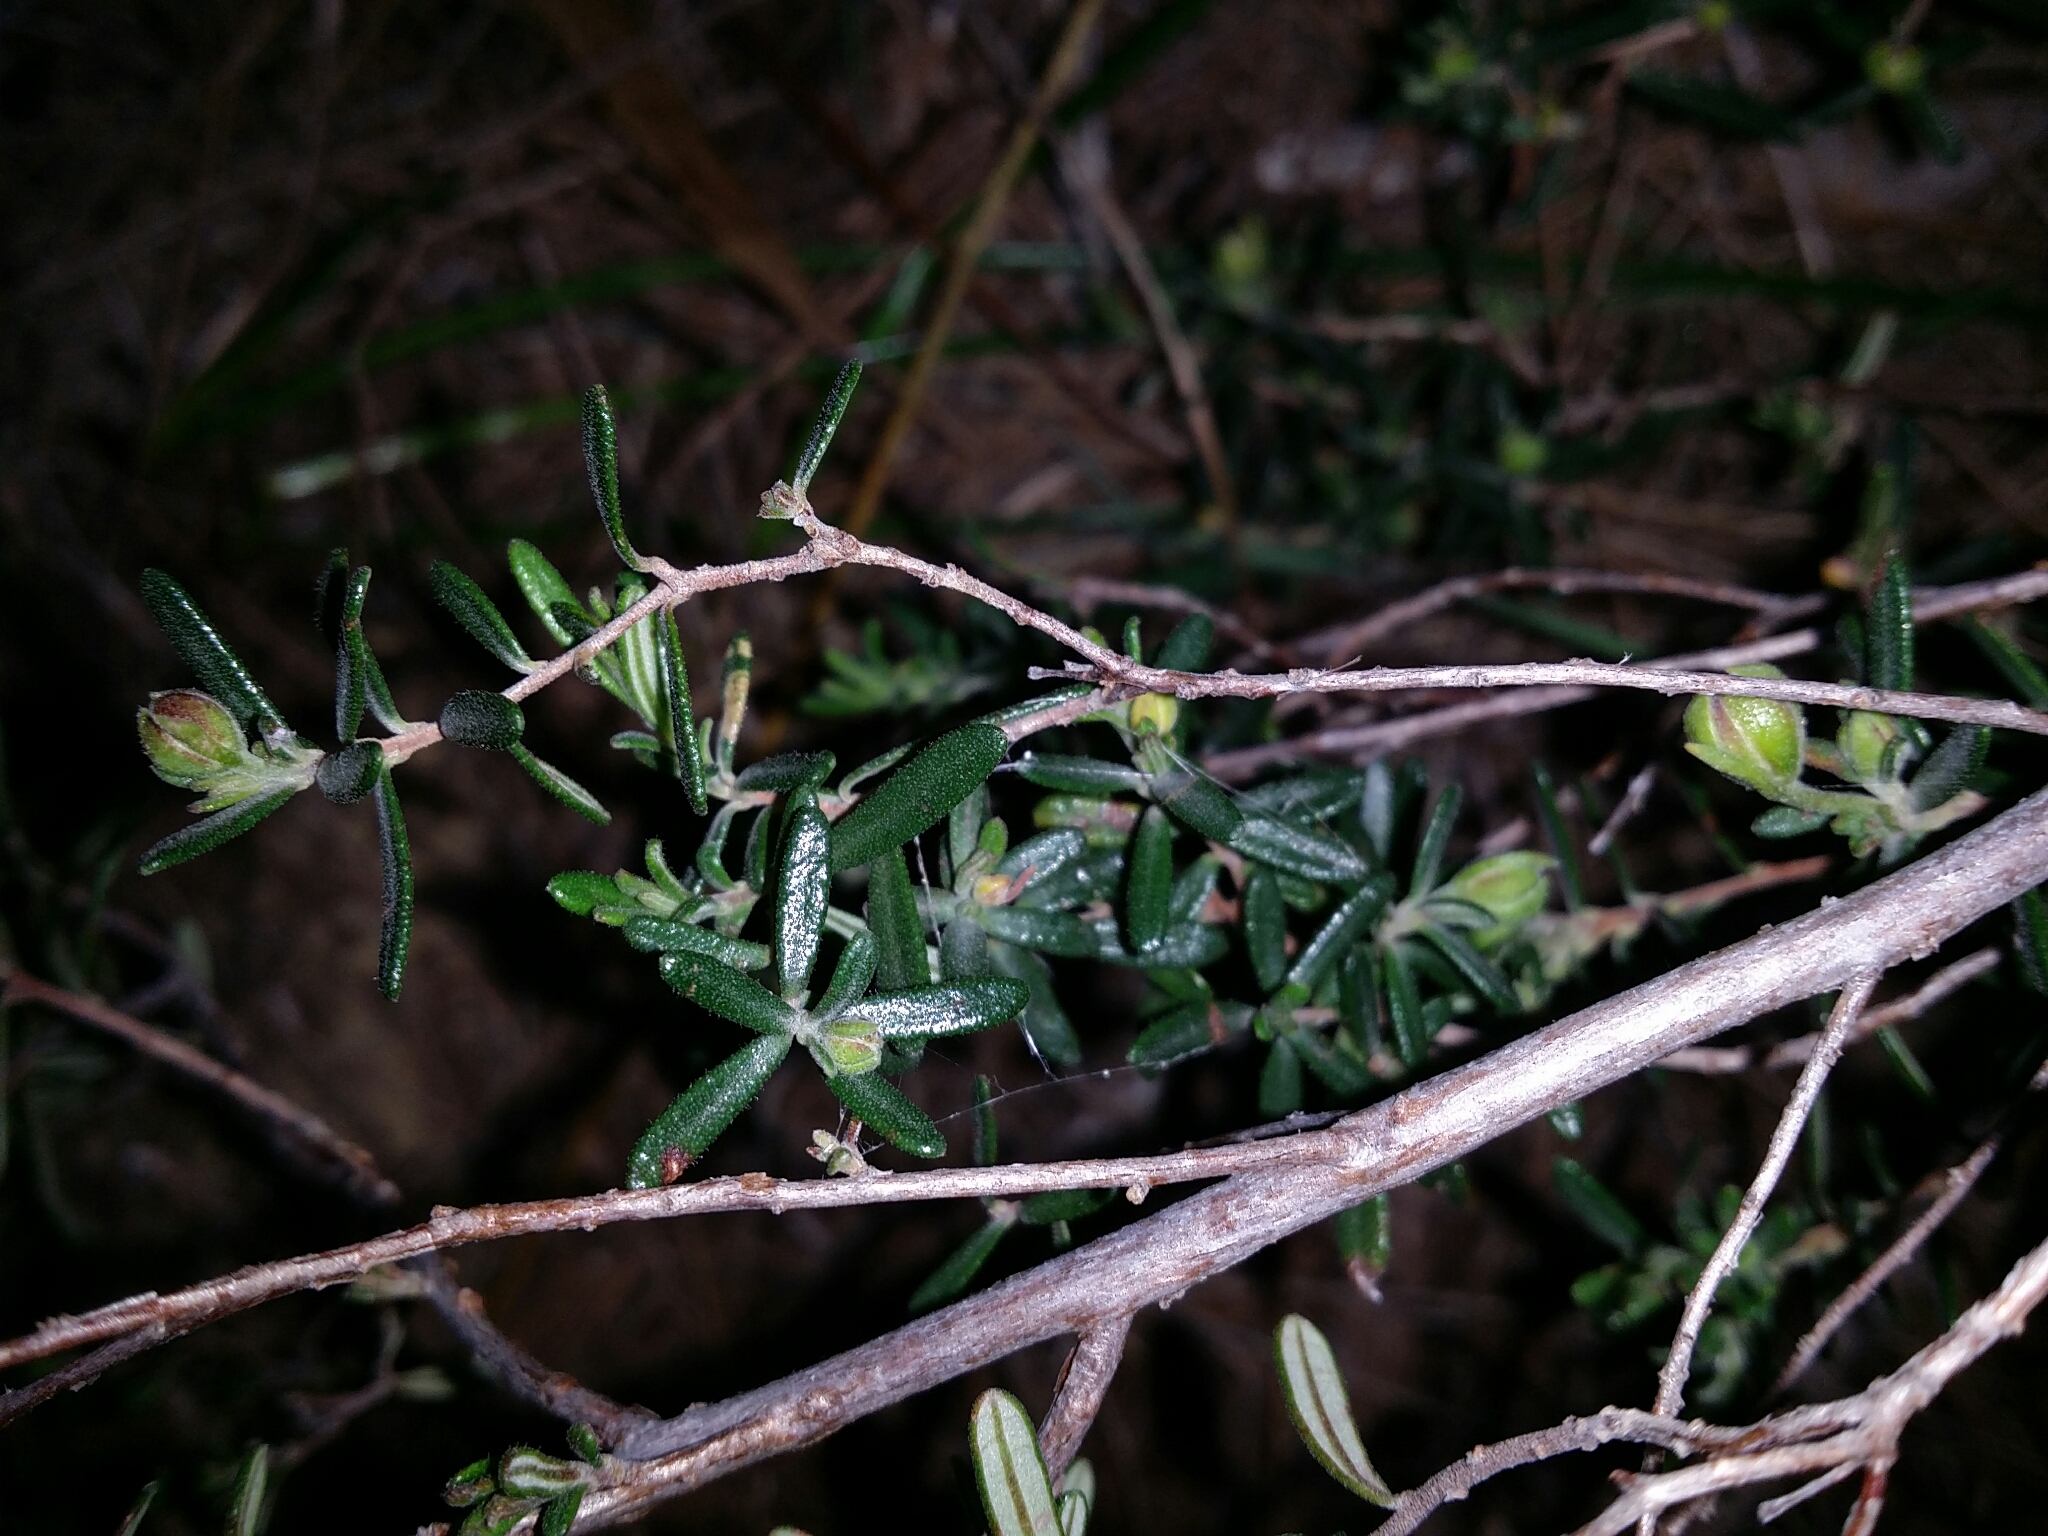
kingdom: Plantae
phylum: Tracheophyta
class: Magnoliopsida
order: Dilleniales
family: Dilleniaceae
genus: Hibbertia
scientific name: Hibbertia hypericoides
